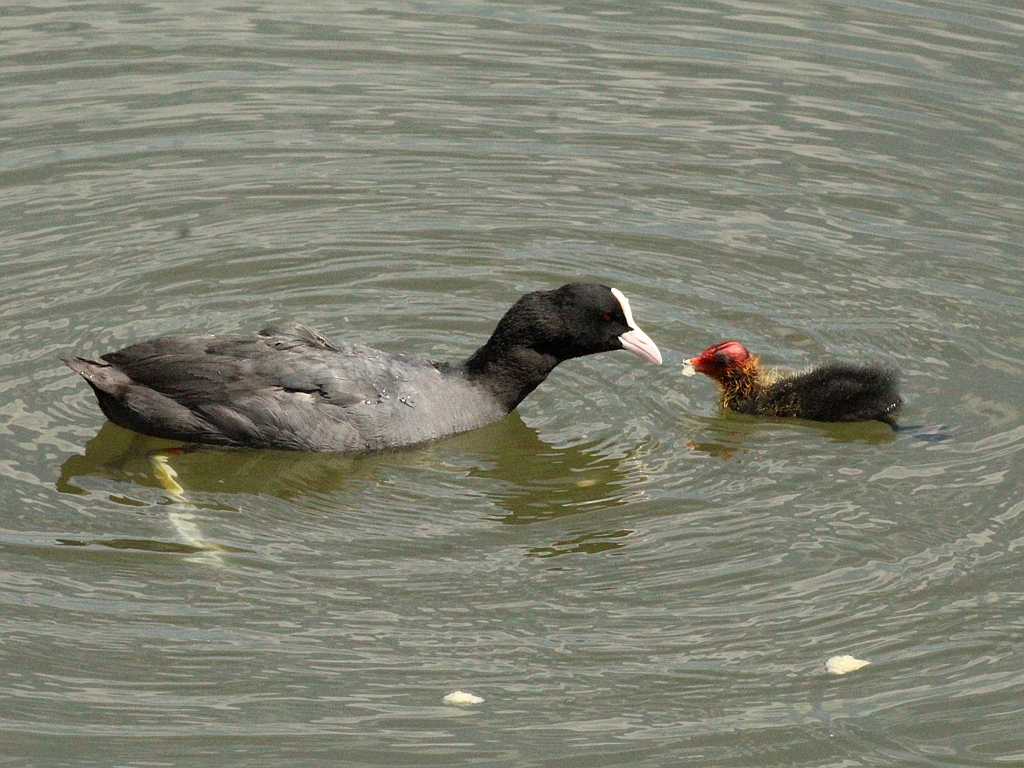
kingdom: Animalia
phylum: Chordata
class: Aves
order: Gruiformes
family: Rallidae
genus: Fulica
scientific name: Fulica atra
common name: Eurasian coot
